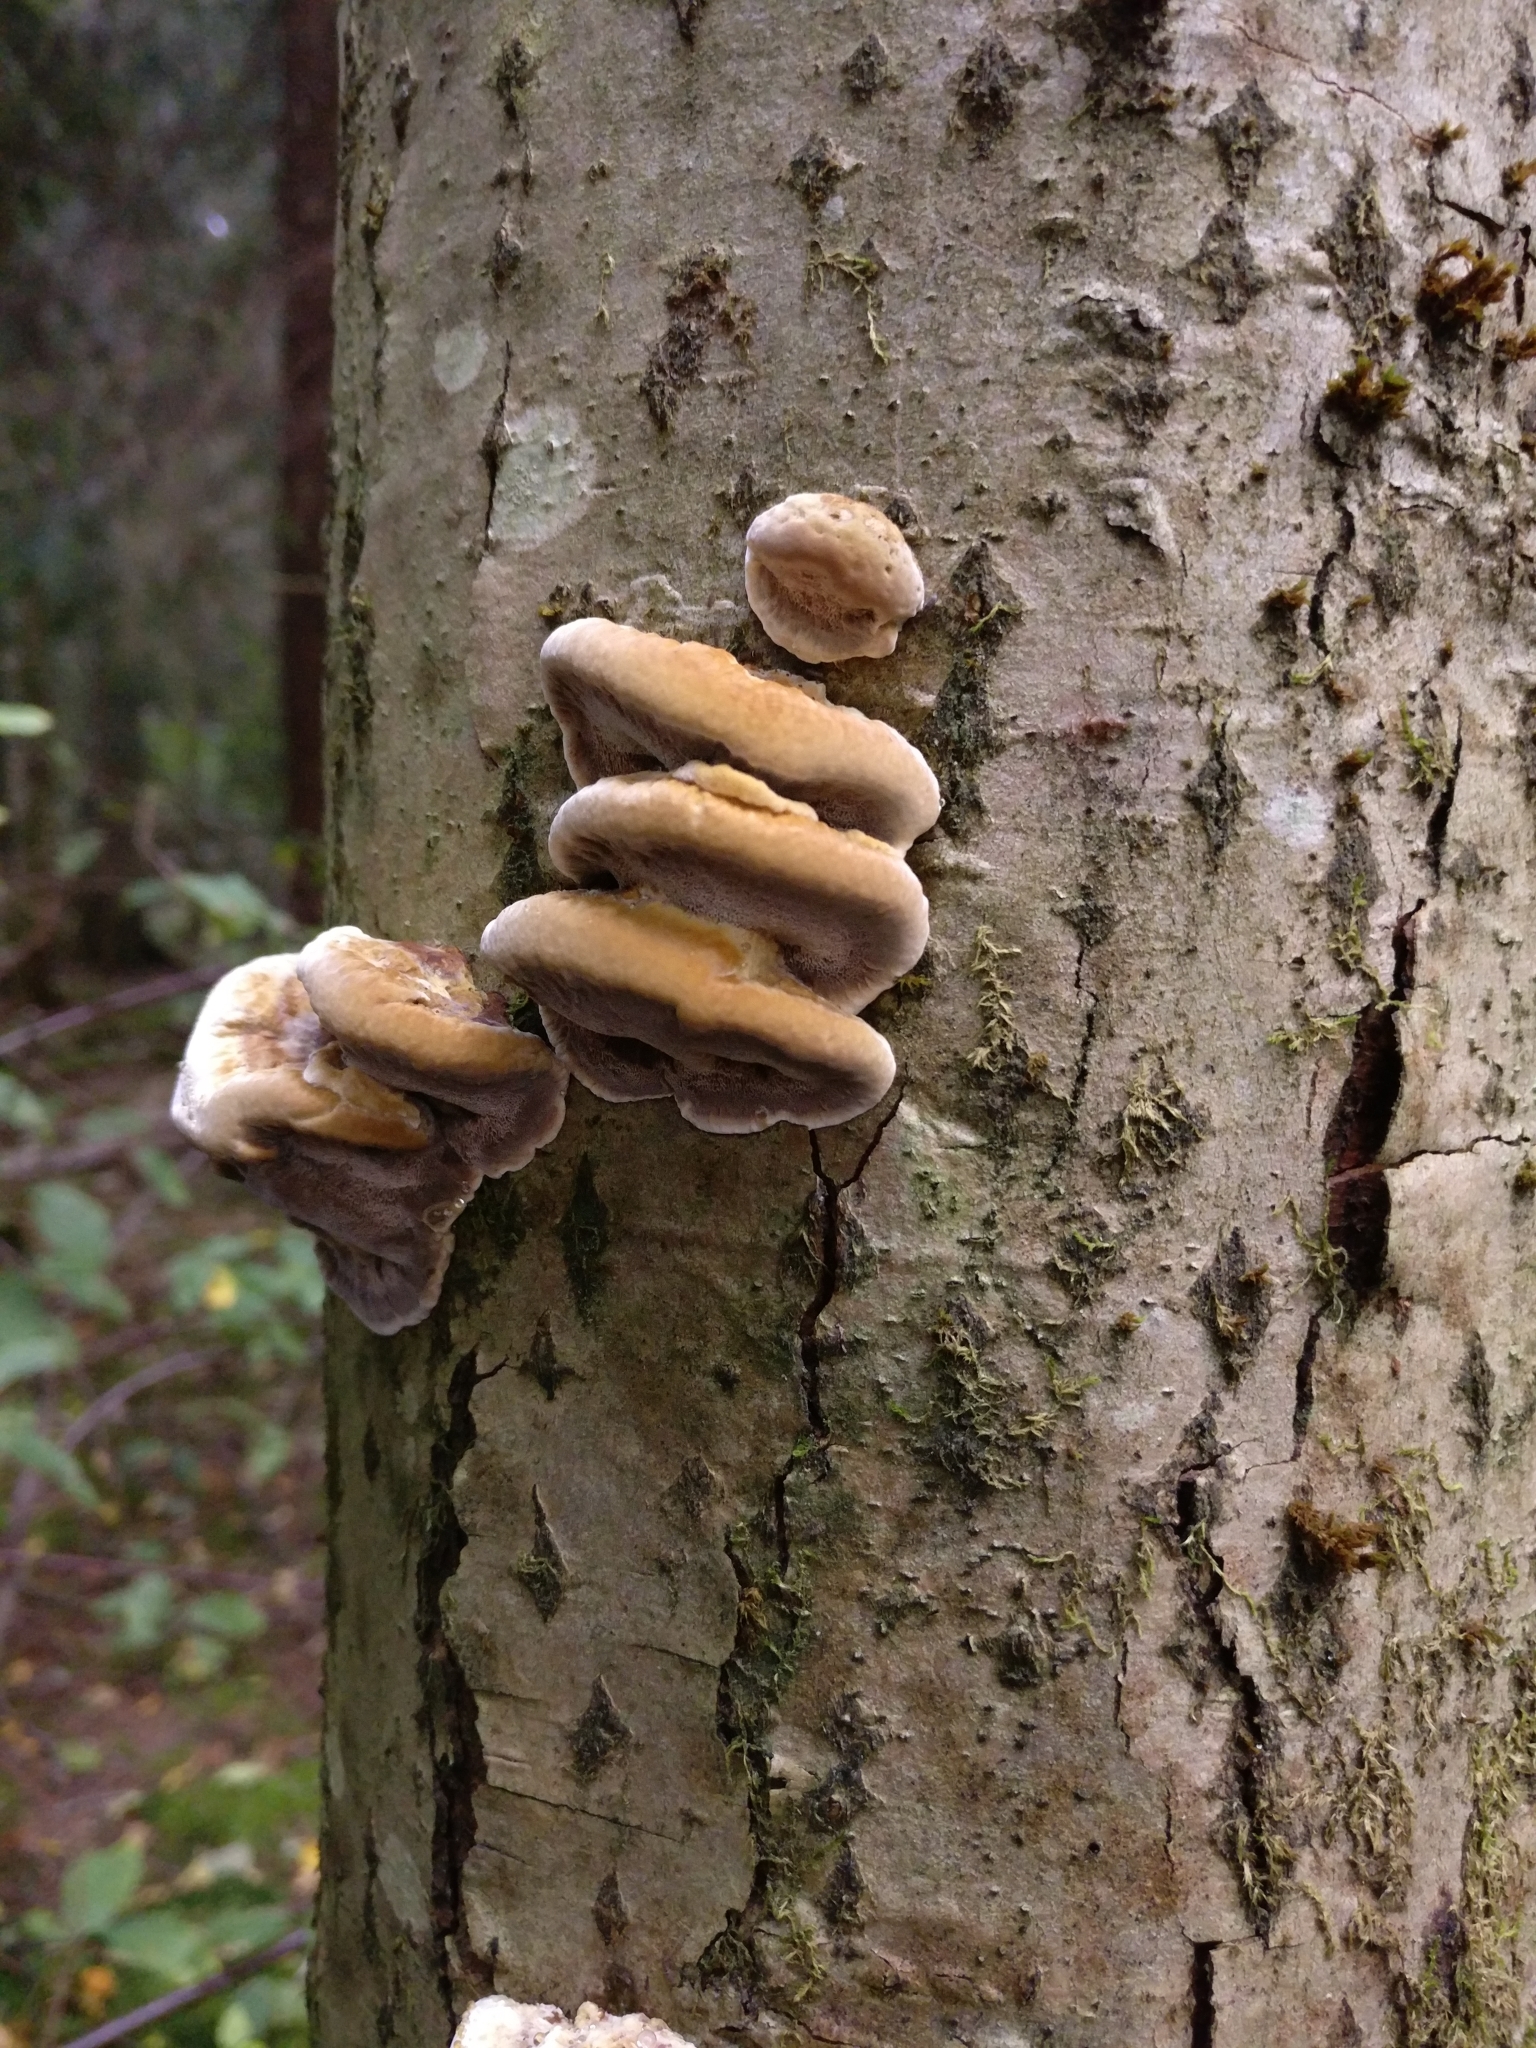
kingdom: Fungi
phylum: Basidiomycota
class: Agaricomycetes
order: Hymenochaetales
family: Hymenochaetaceae
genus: Xanthoporia
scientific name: Xanthoporia radiata
